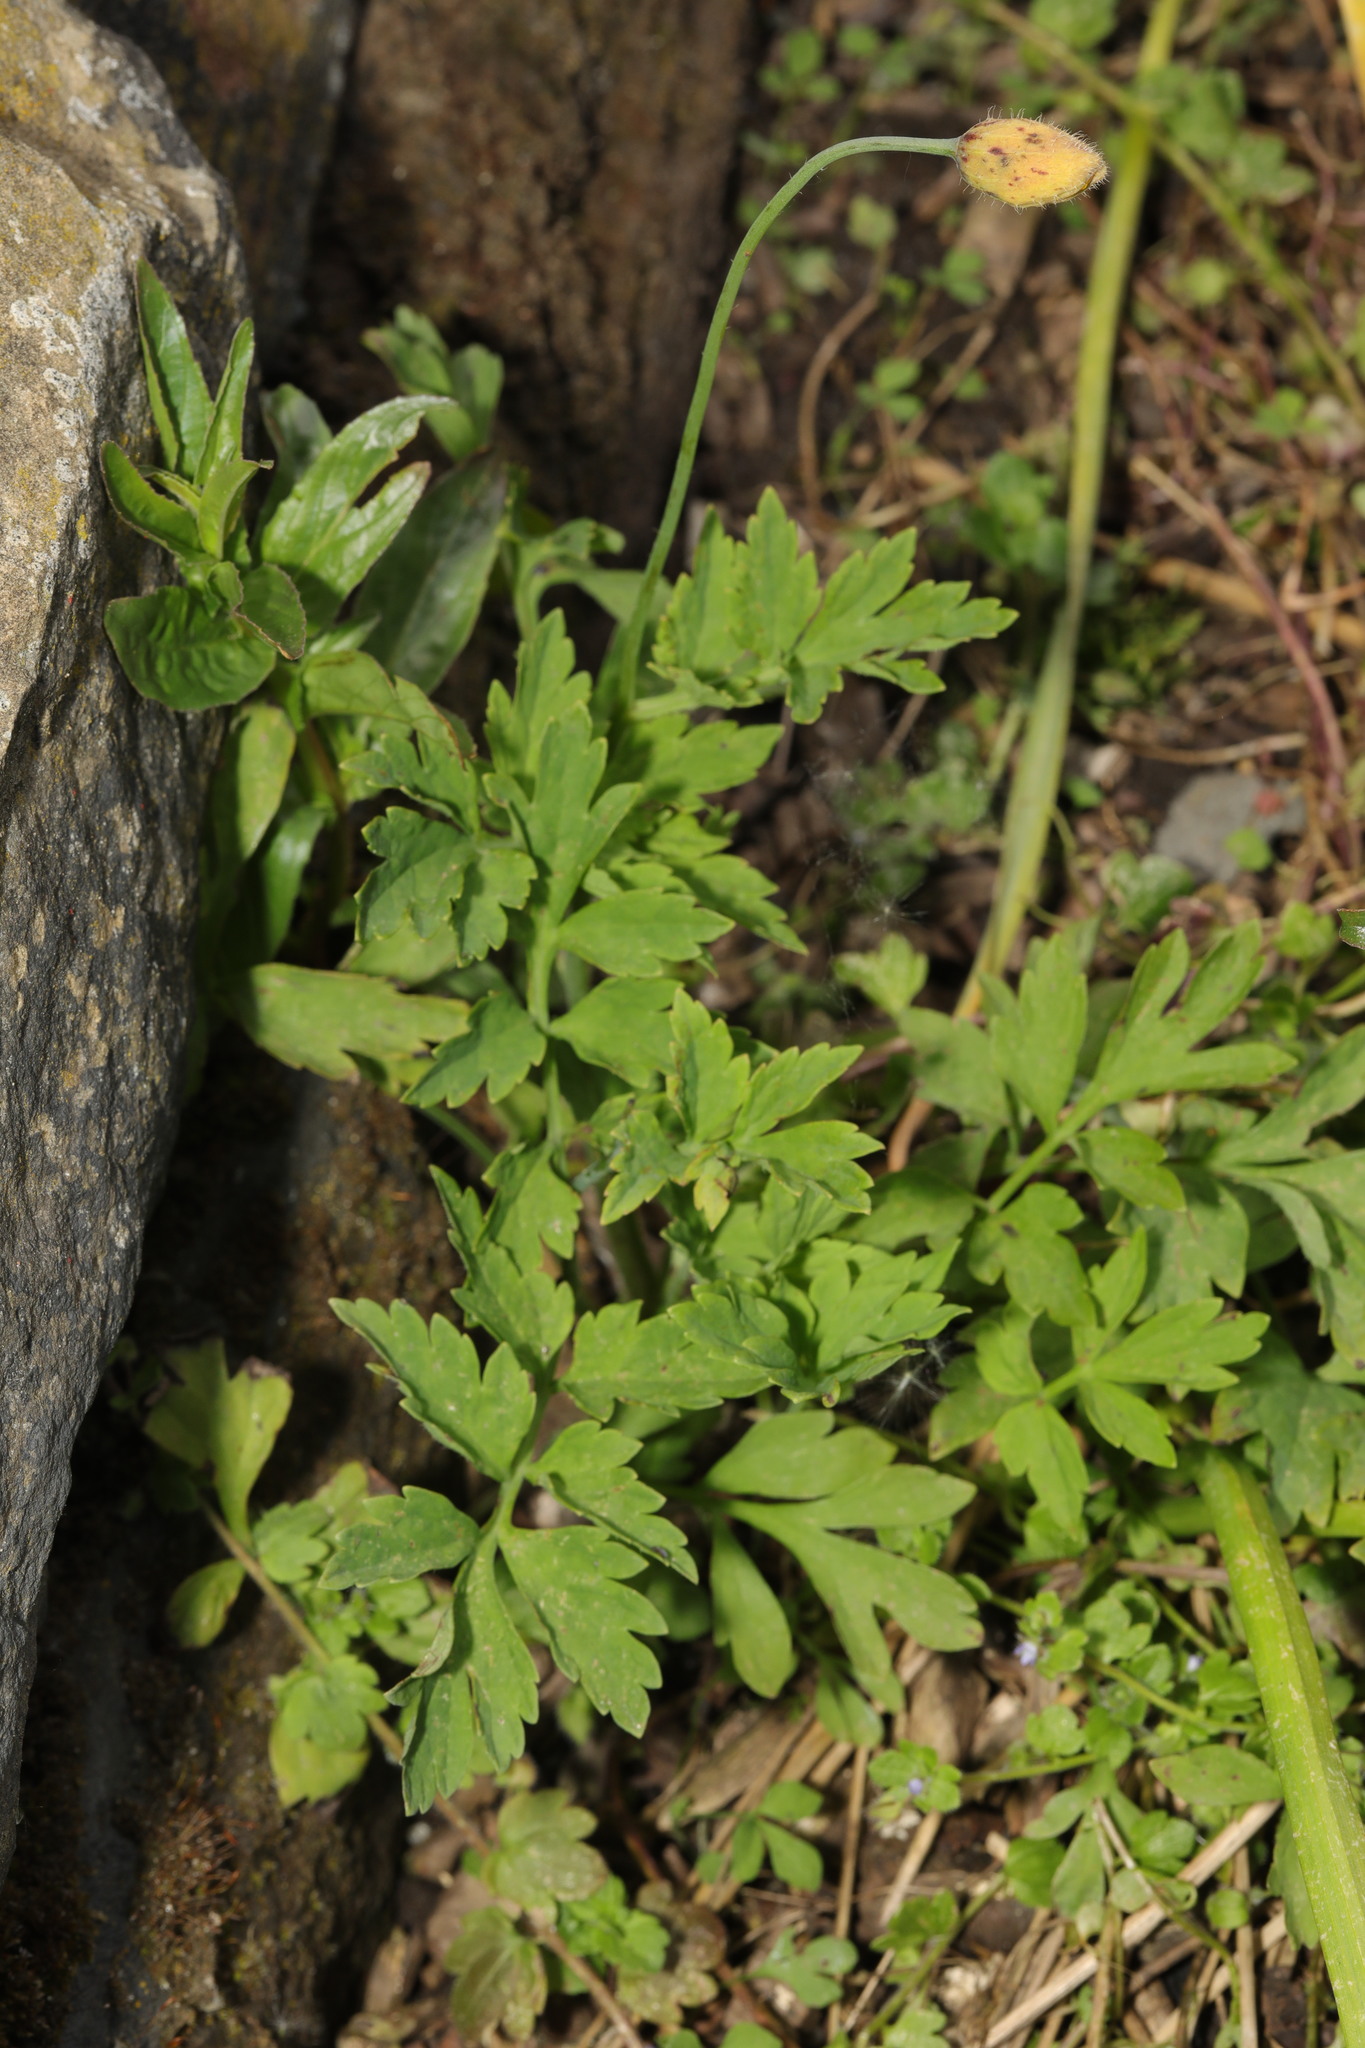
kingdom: Plantae
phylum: Tracheophyta
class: Magnoliopsida
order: Ranunculales
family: Papaveraceae
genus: Papaver
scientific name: Papaver cambricum
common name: Poppy
